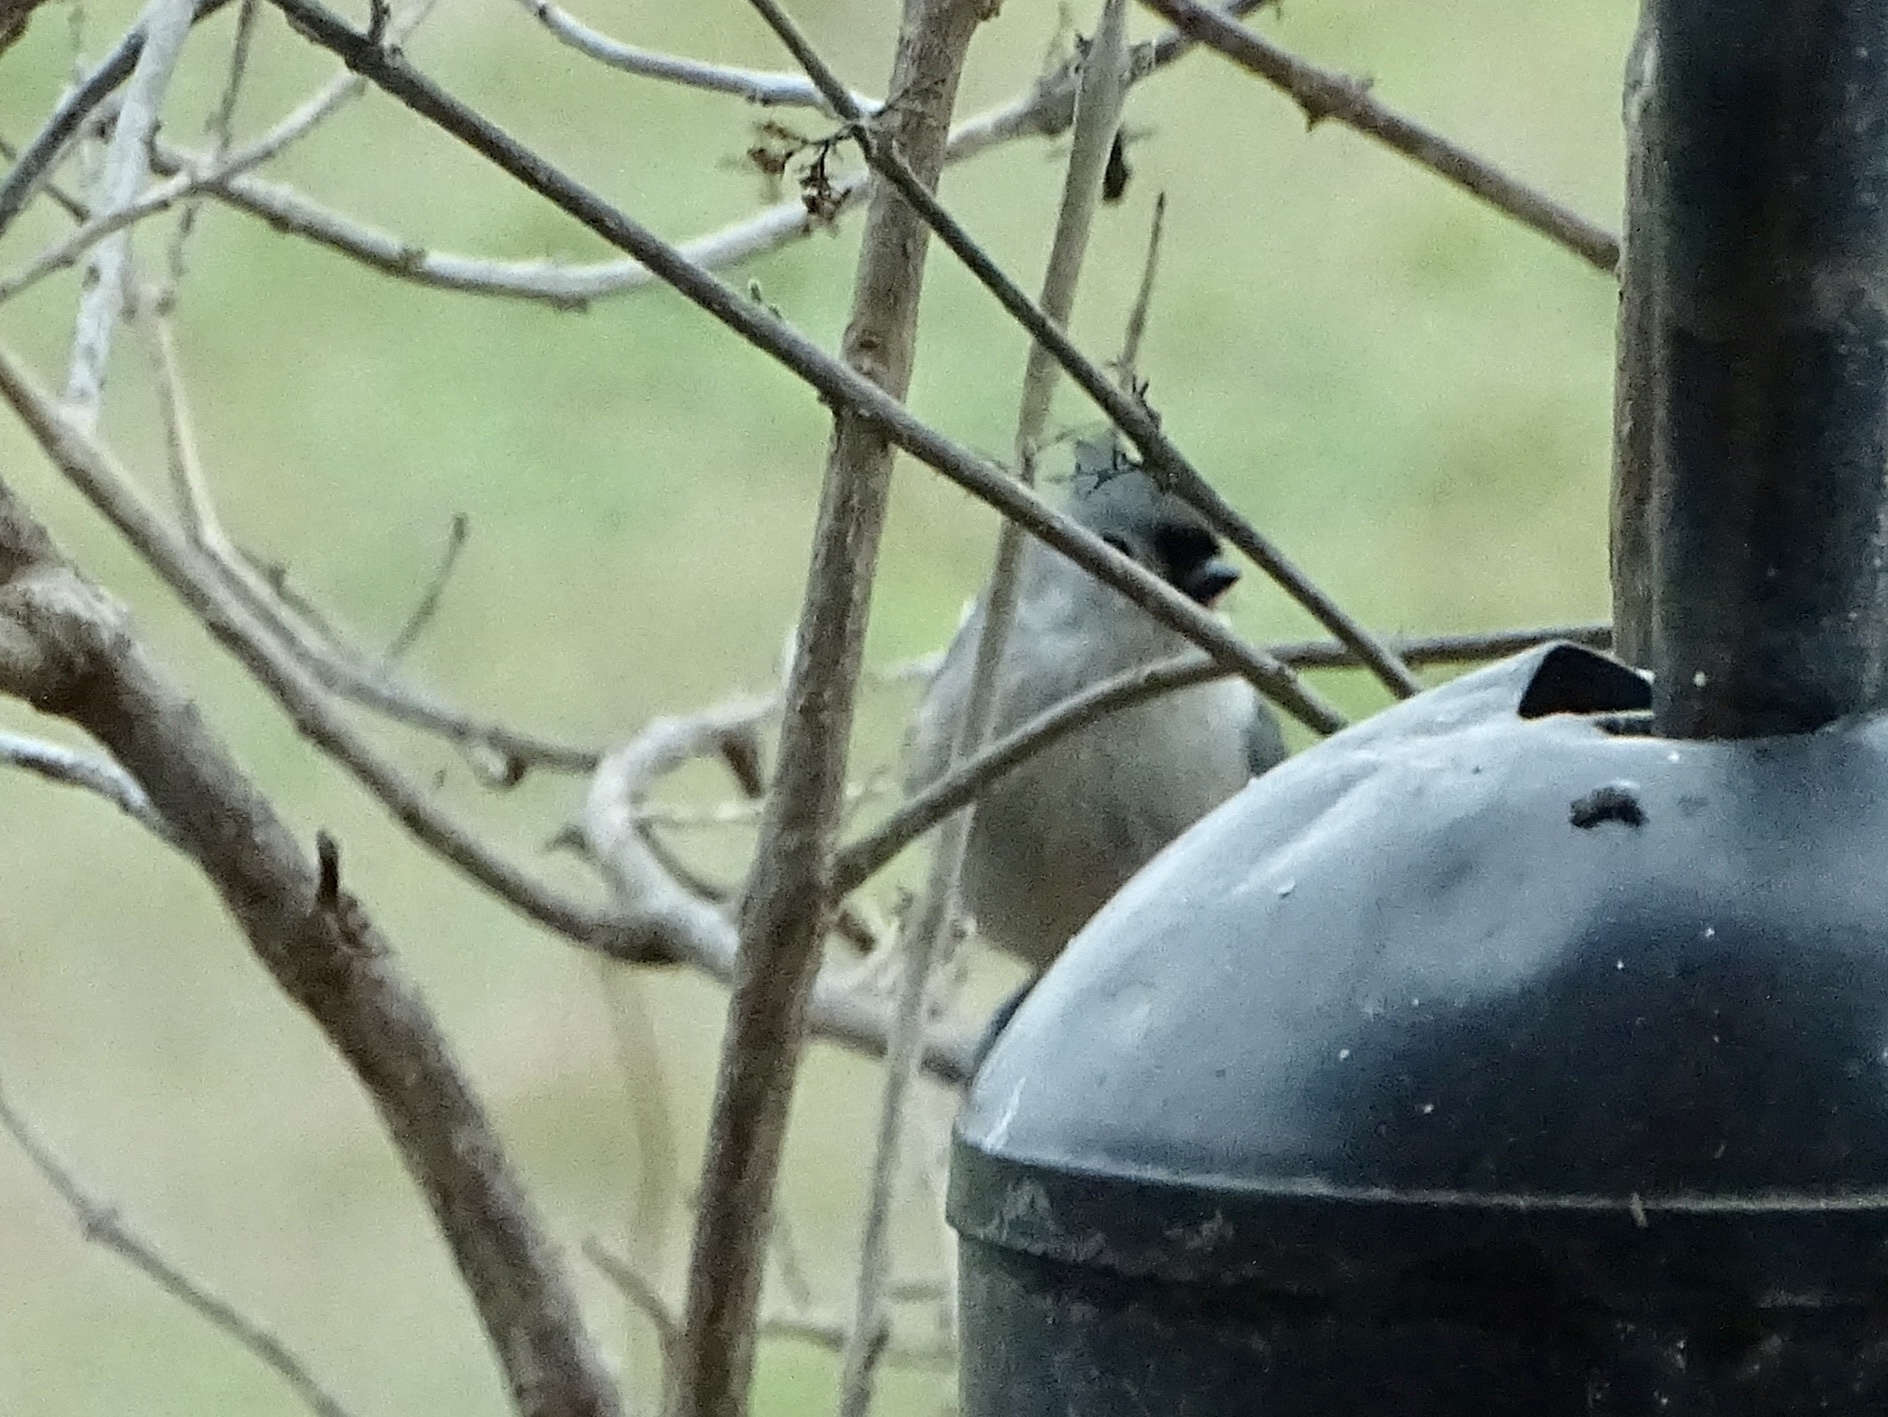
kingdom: Animalia
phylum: Chordata
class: Aves
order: Passeriformes
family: Paridae
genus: Baeolophus
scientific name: Baeolophus bicolor
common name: Tufted titmouse
